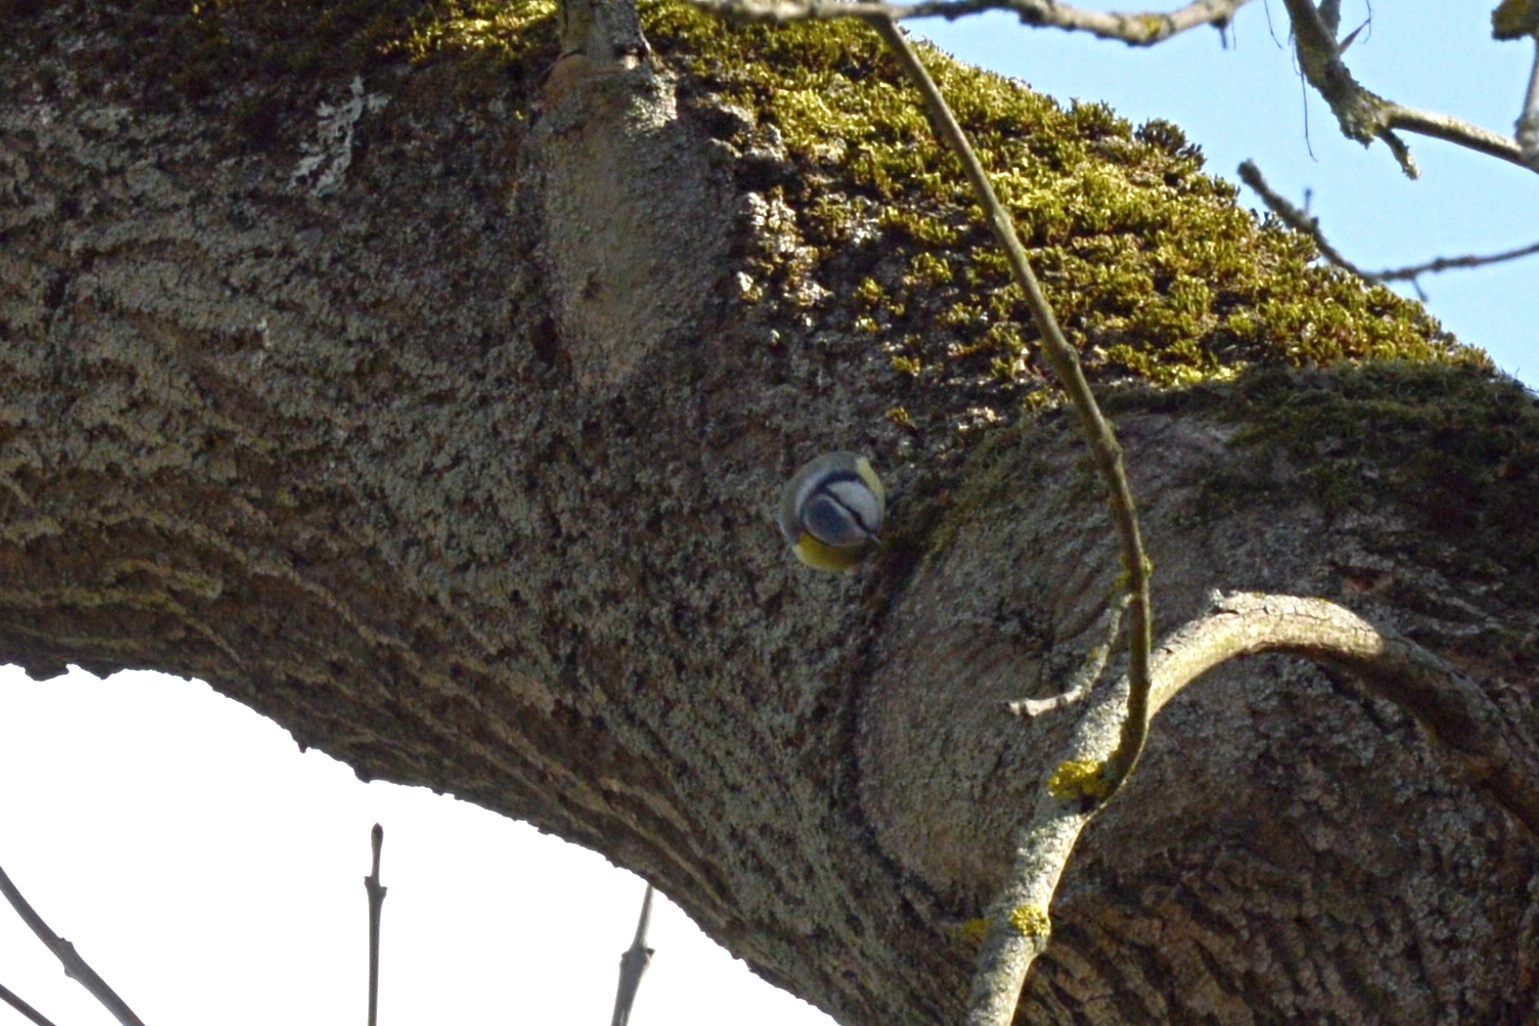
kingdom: Animalia
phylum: Chordata
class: Aves
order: Passeriformes
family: Paridae
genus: Cyanistes
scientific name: Cyanistes caeruleus
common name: Eurasian blue tit
